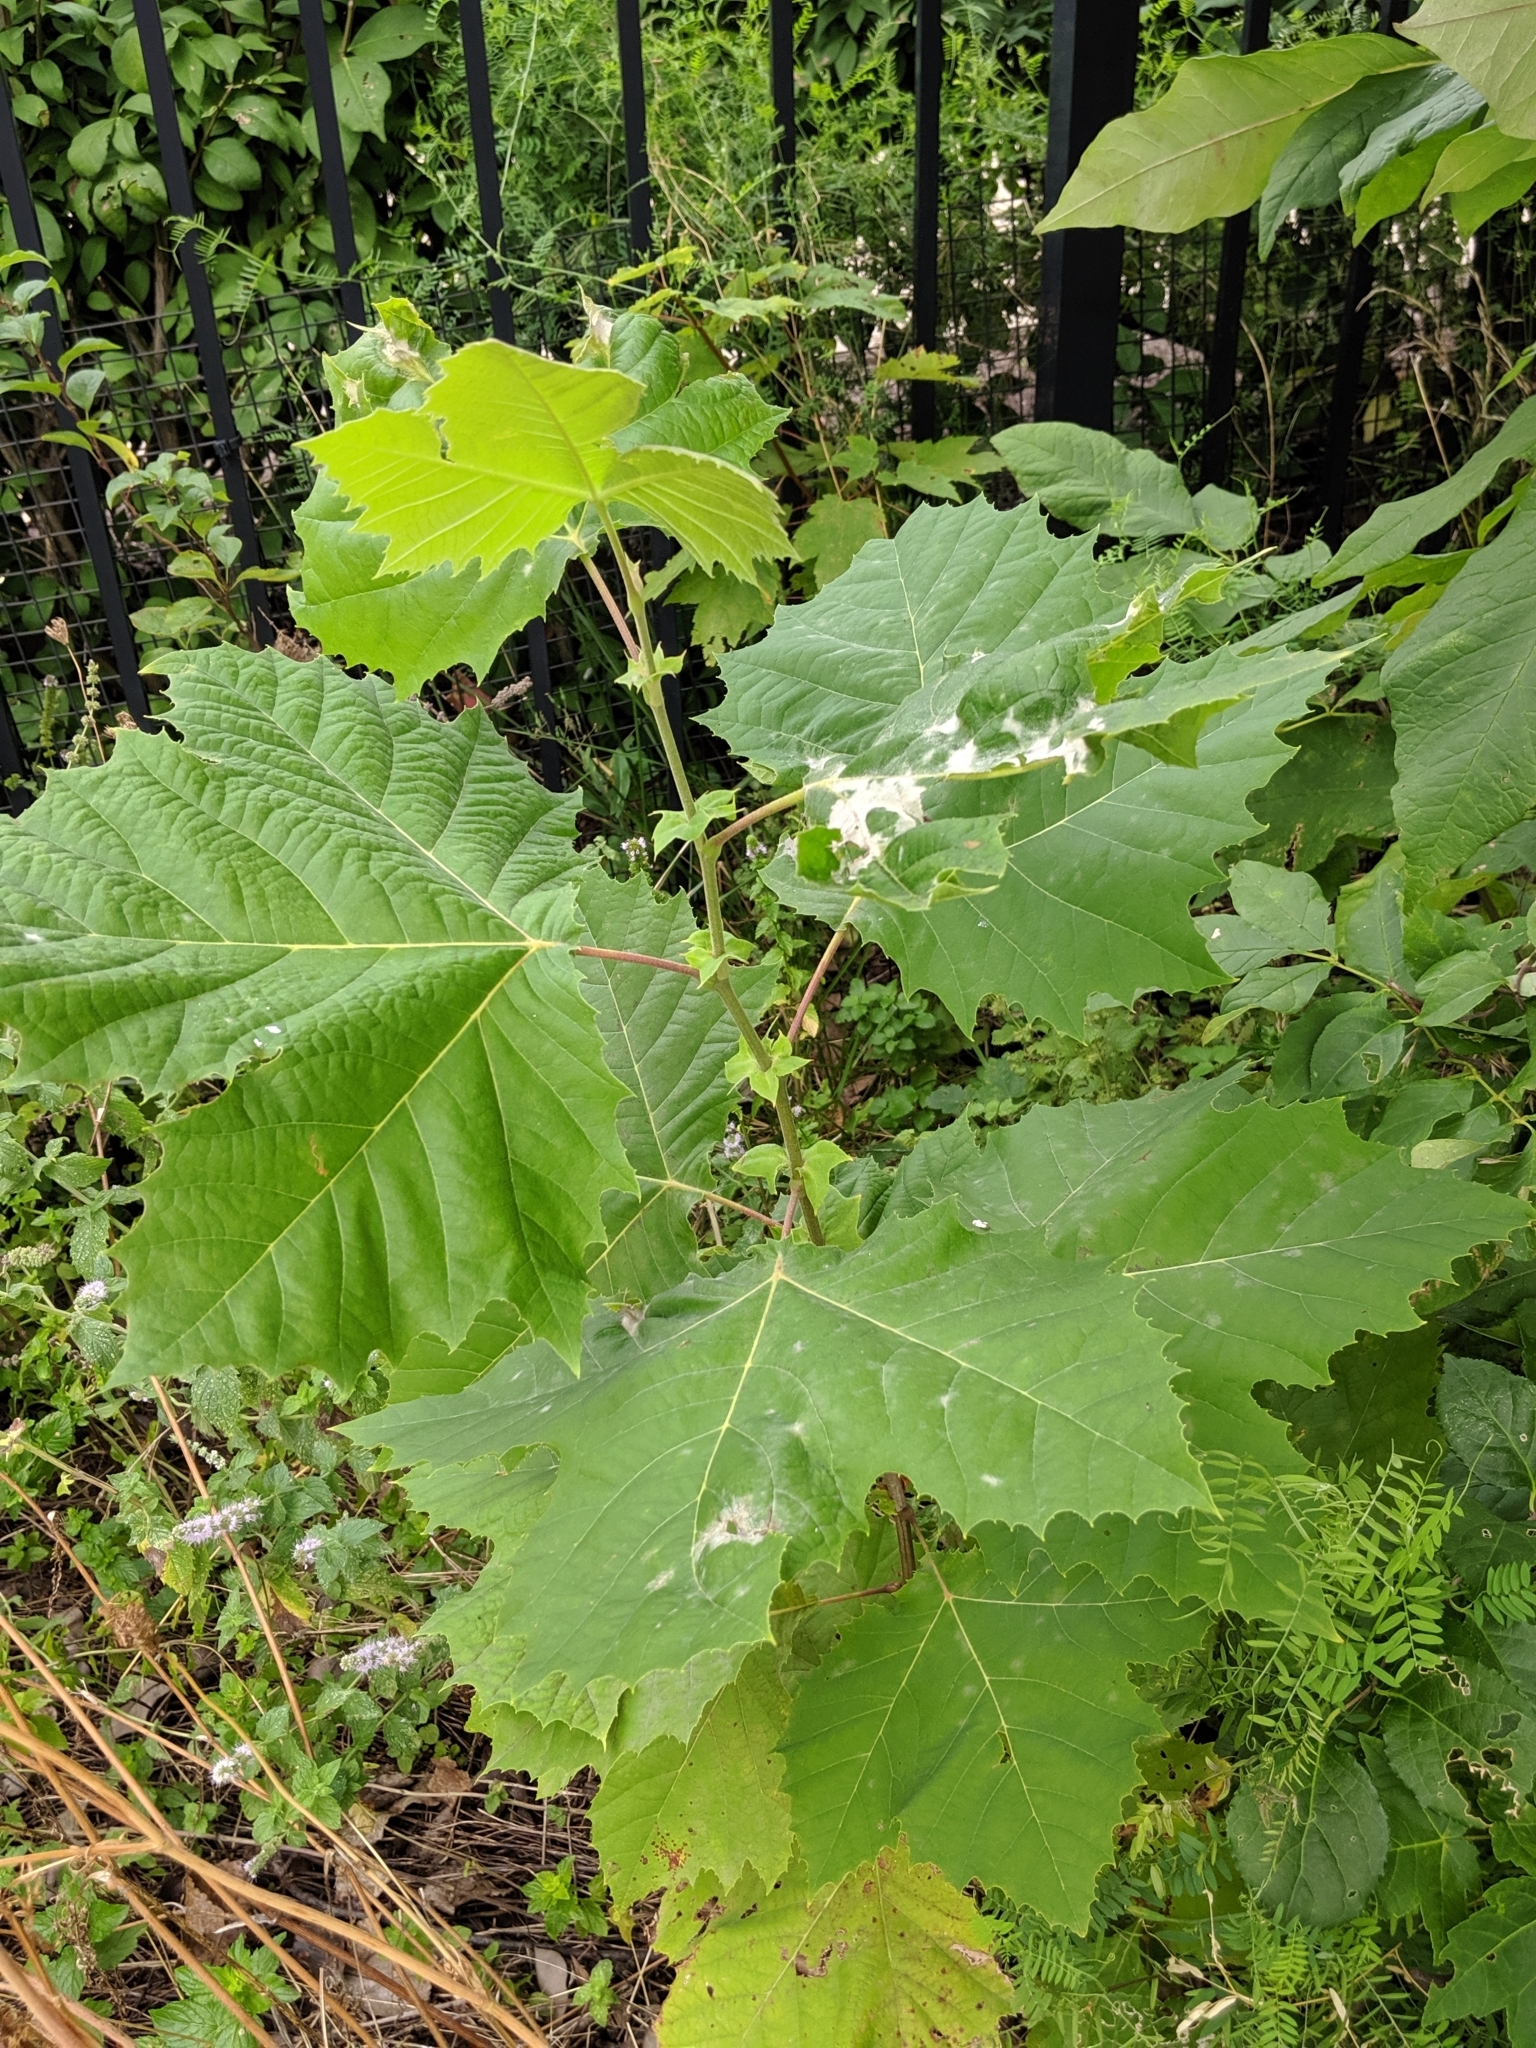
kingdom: Fungi
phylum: Ascomycota
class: Leotiomycetes
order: Helotiales
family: Erysiphaceae
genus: Erysiphe
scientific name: Erysiphe platani
